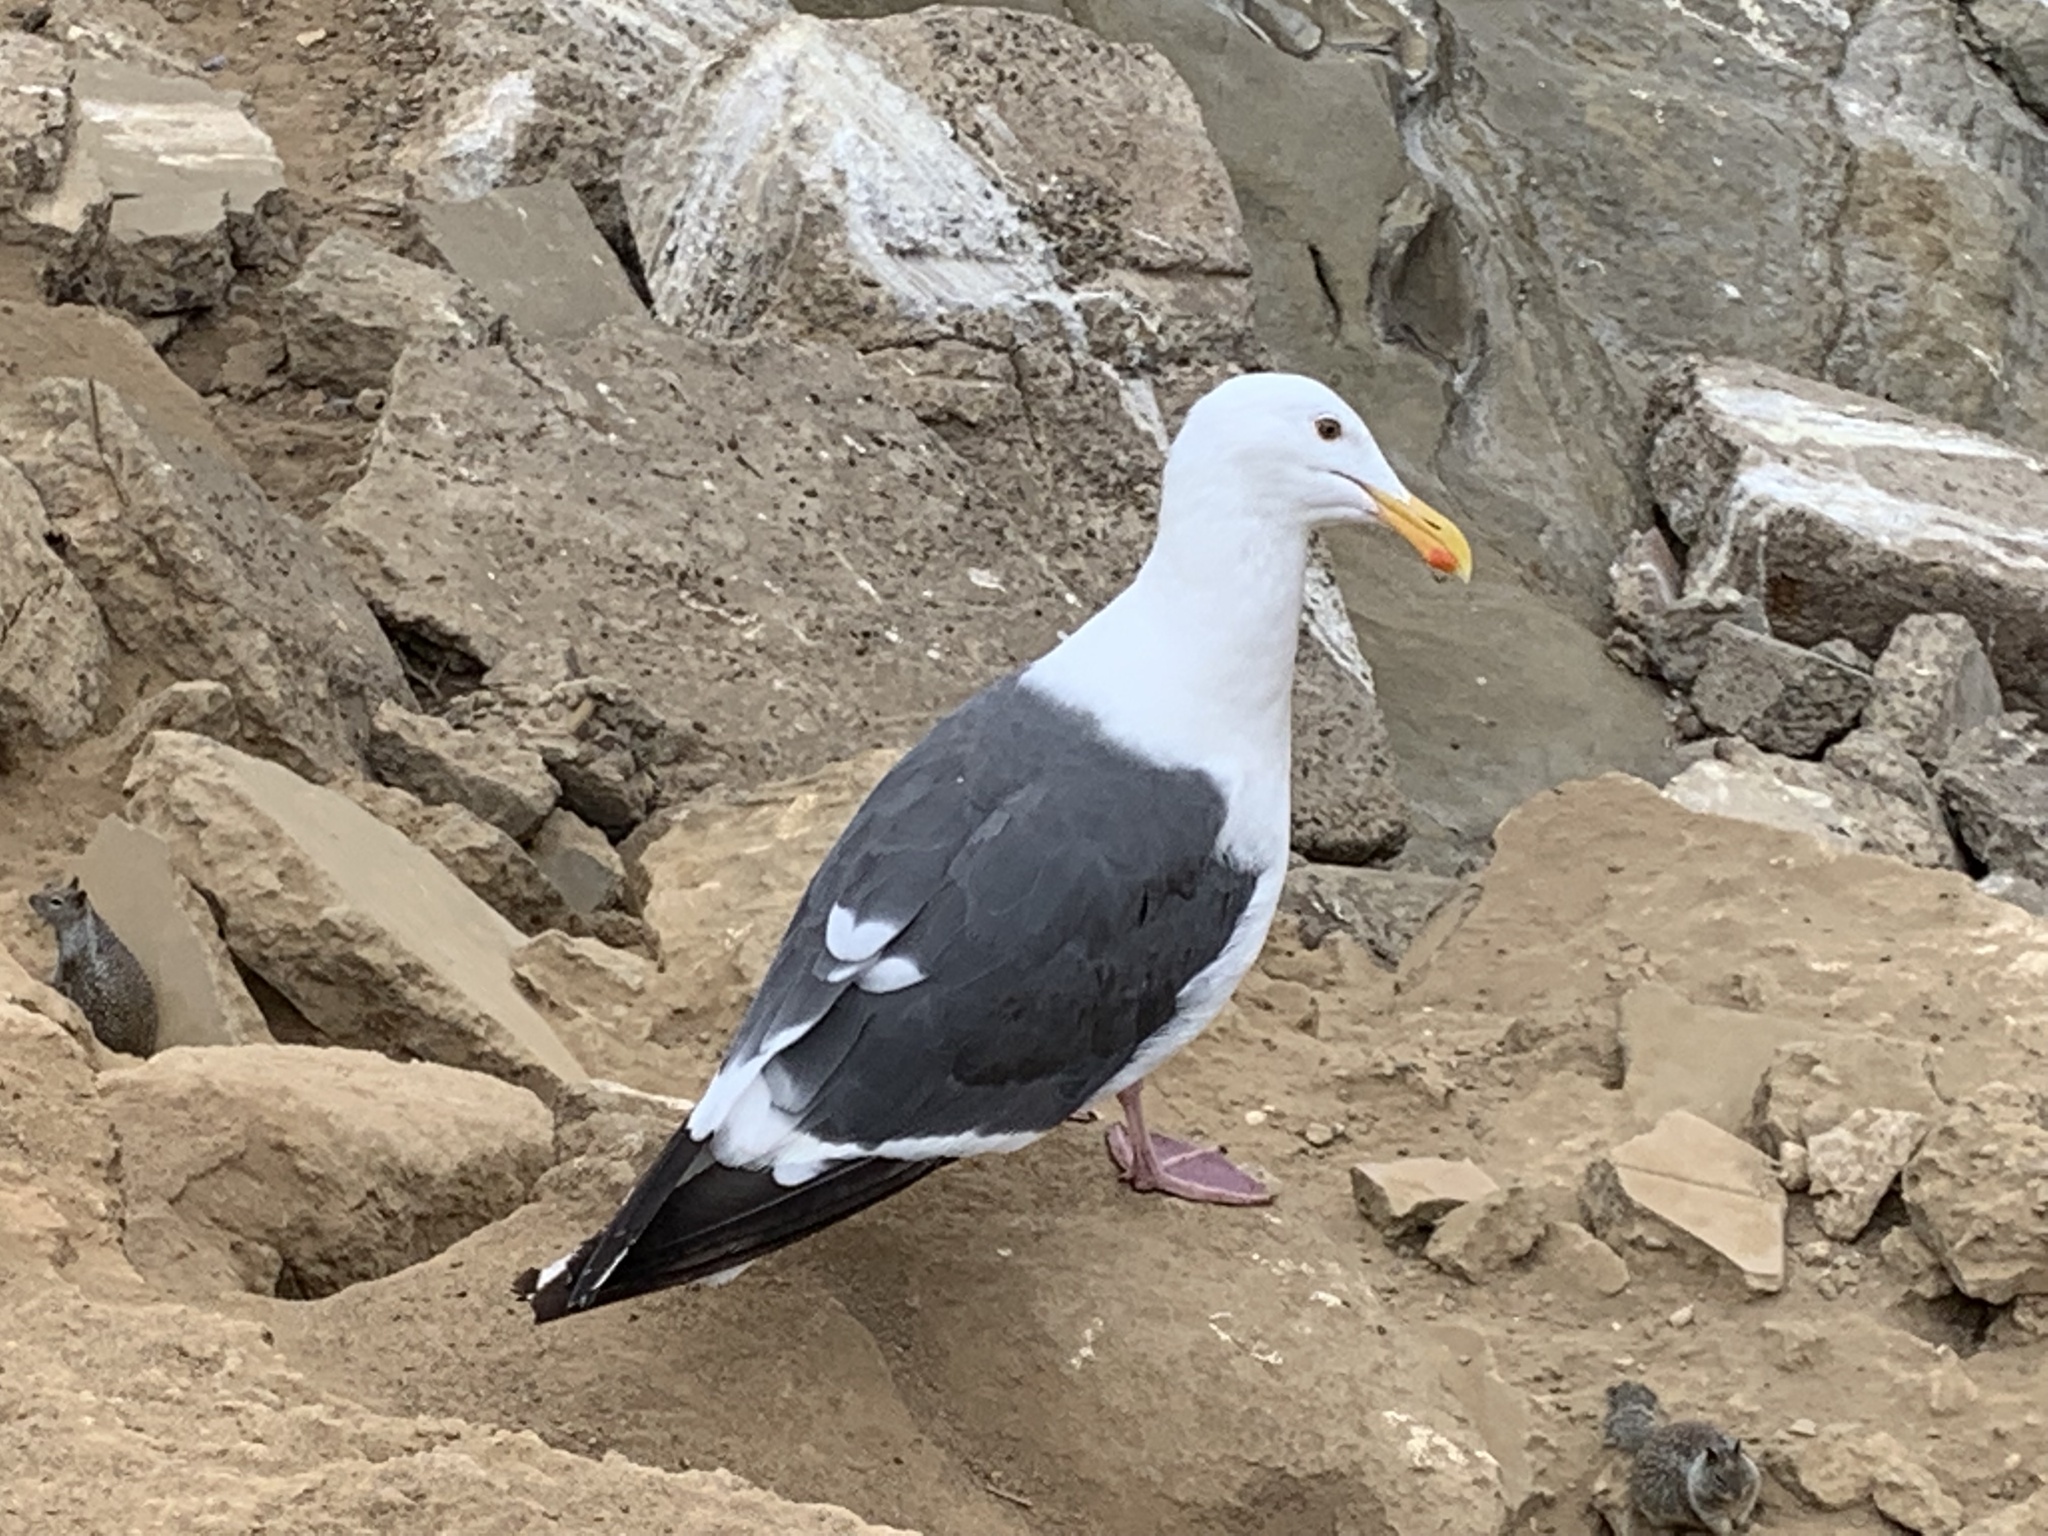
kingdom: Animalia
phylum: Chordata
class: Aves
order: Charadriiformes
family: Laridae
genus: Larus
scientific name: Larus occidentalis
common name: Western gull
